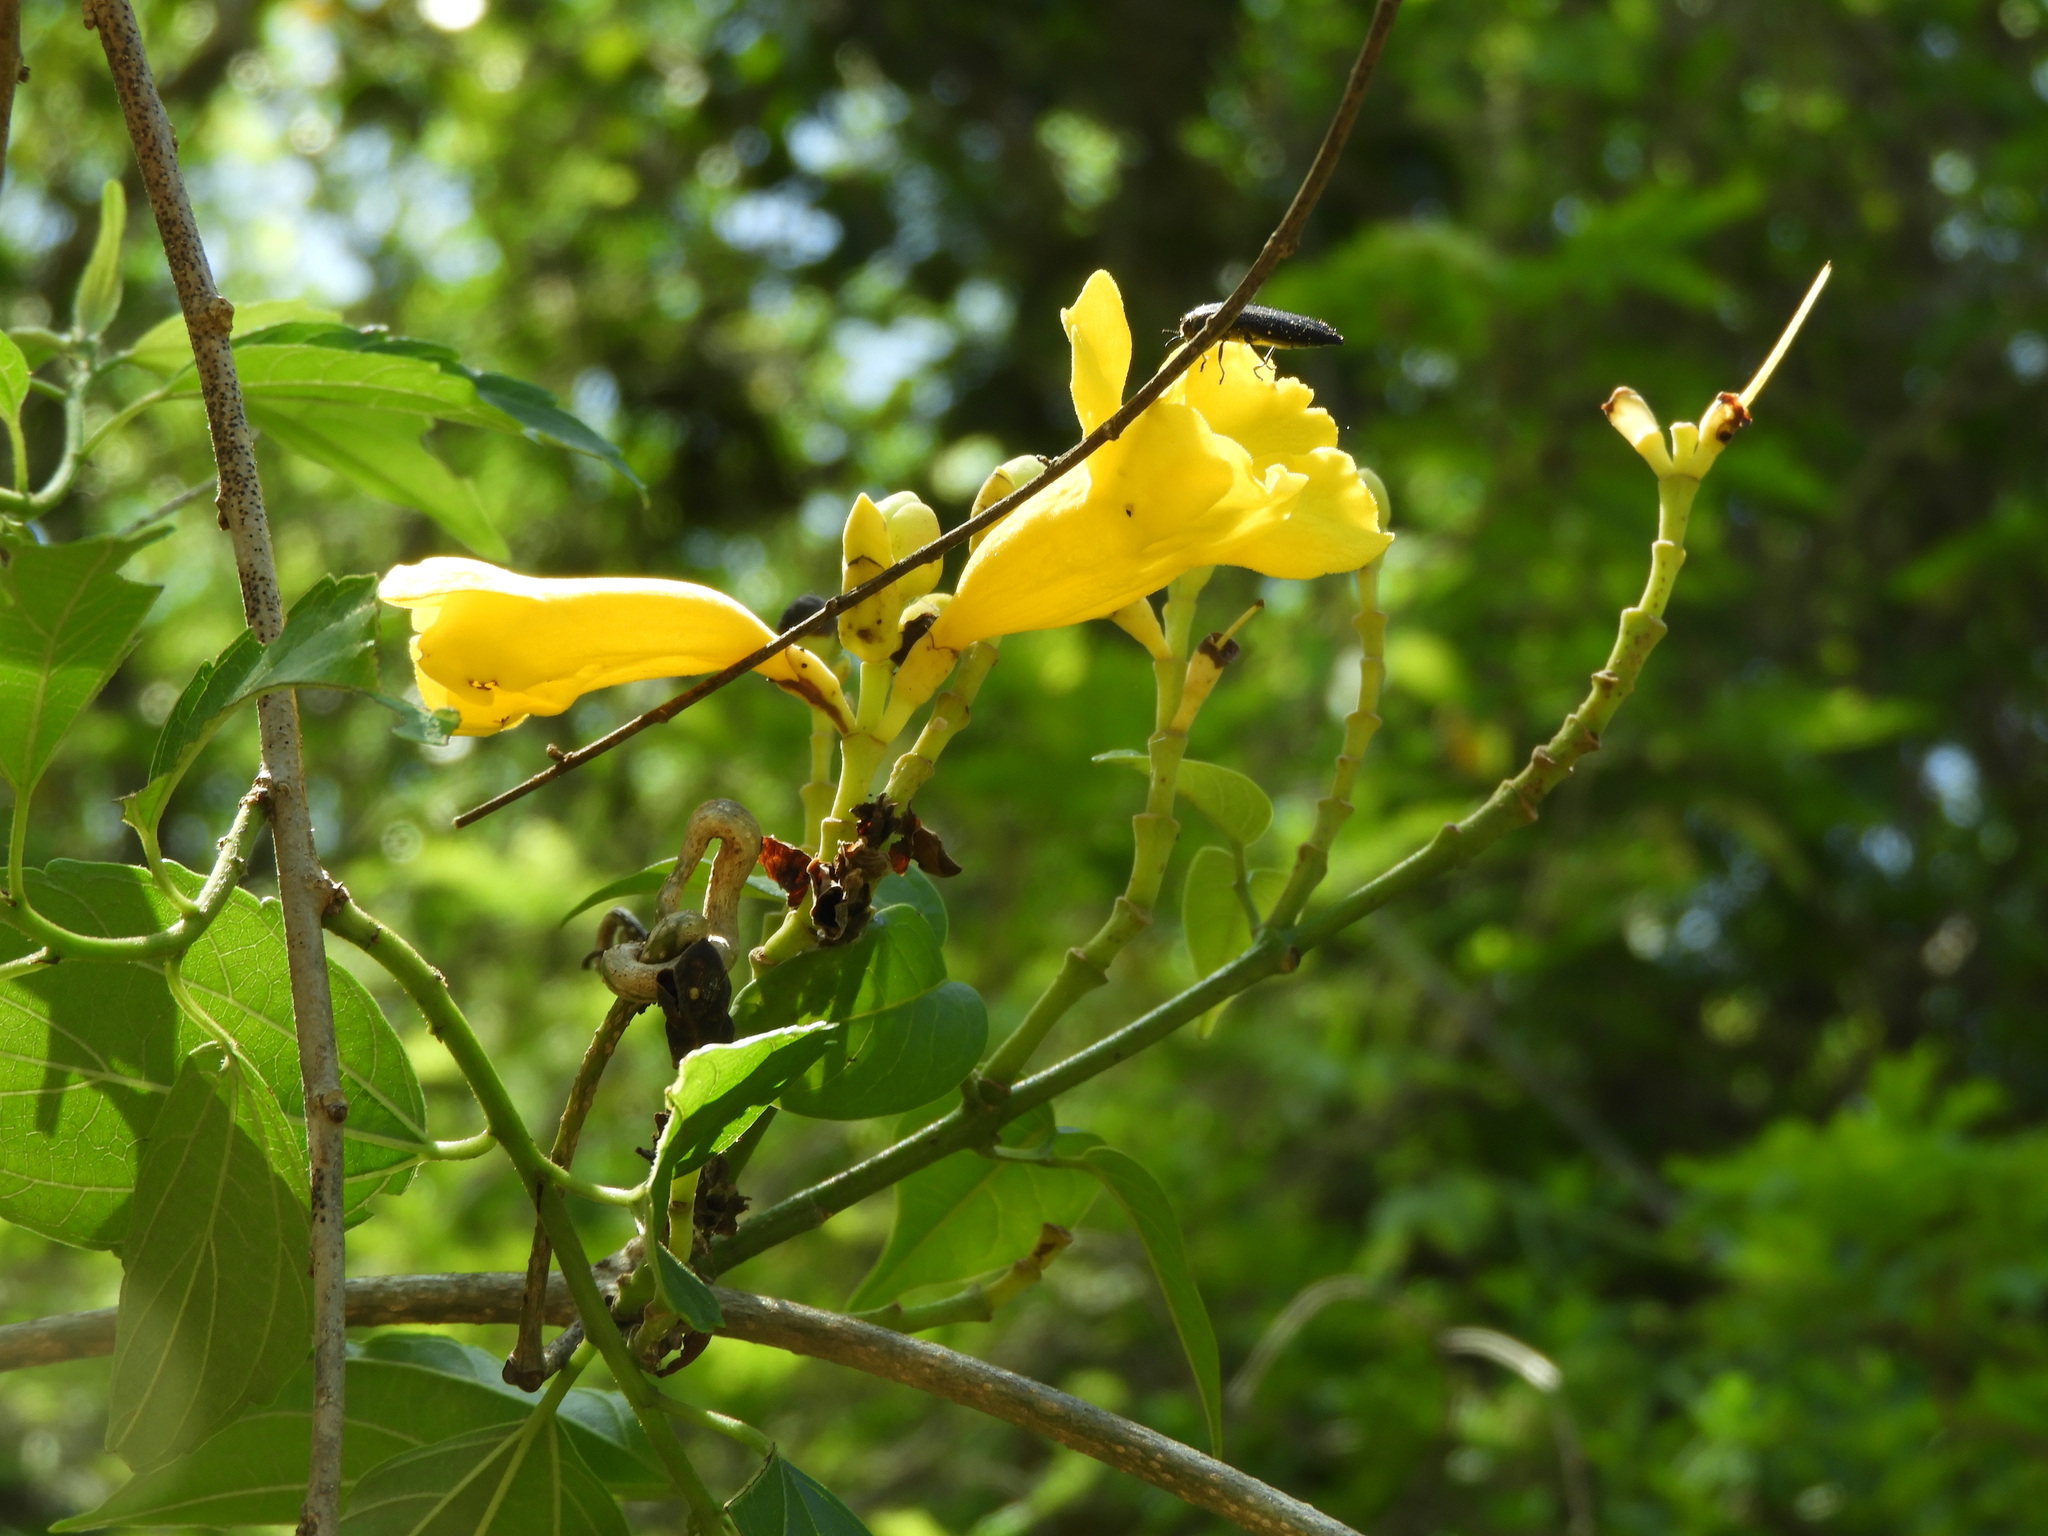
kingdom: Plantae
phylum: Tracheophyta
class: Magnoliopsida
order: Lamiales
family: Bignoniaceae
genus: Adenocalymma
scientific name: Adenocalymma inundatum
